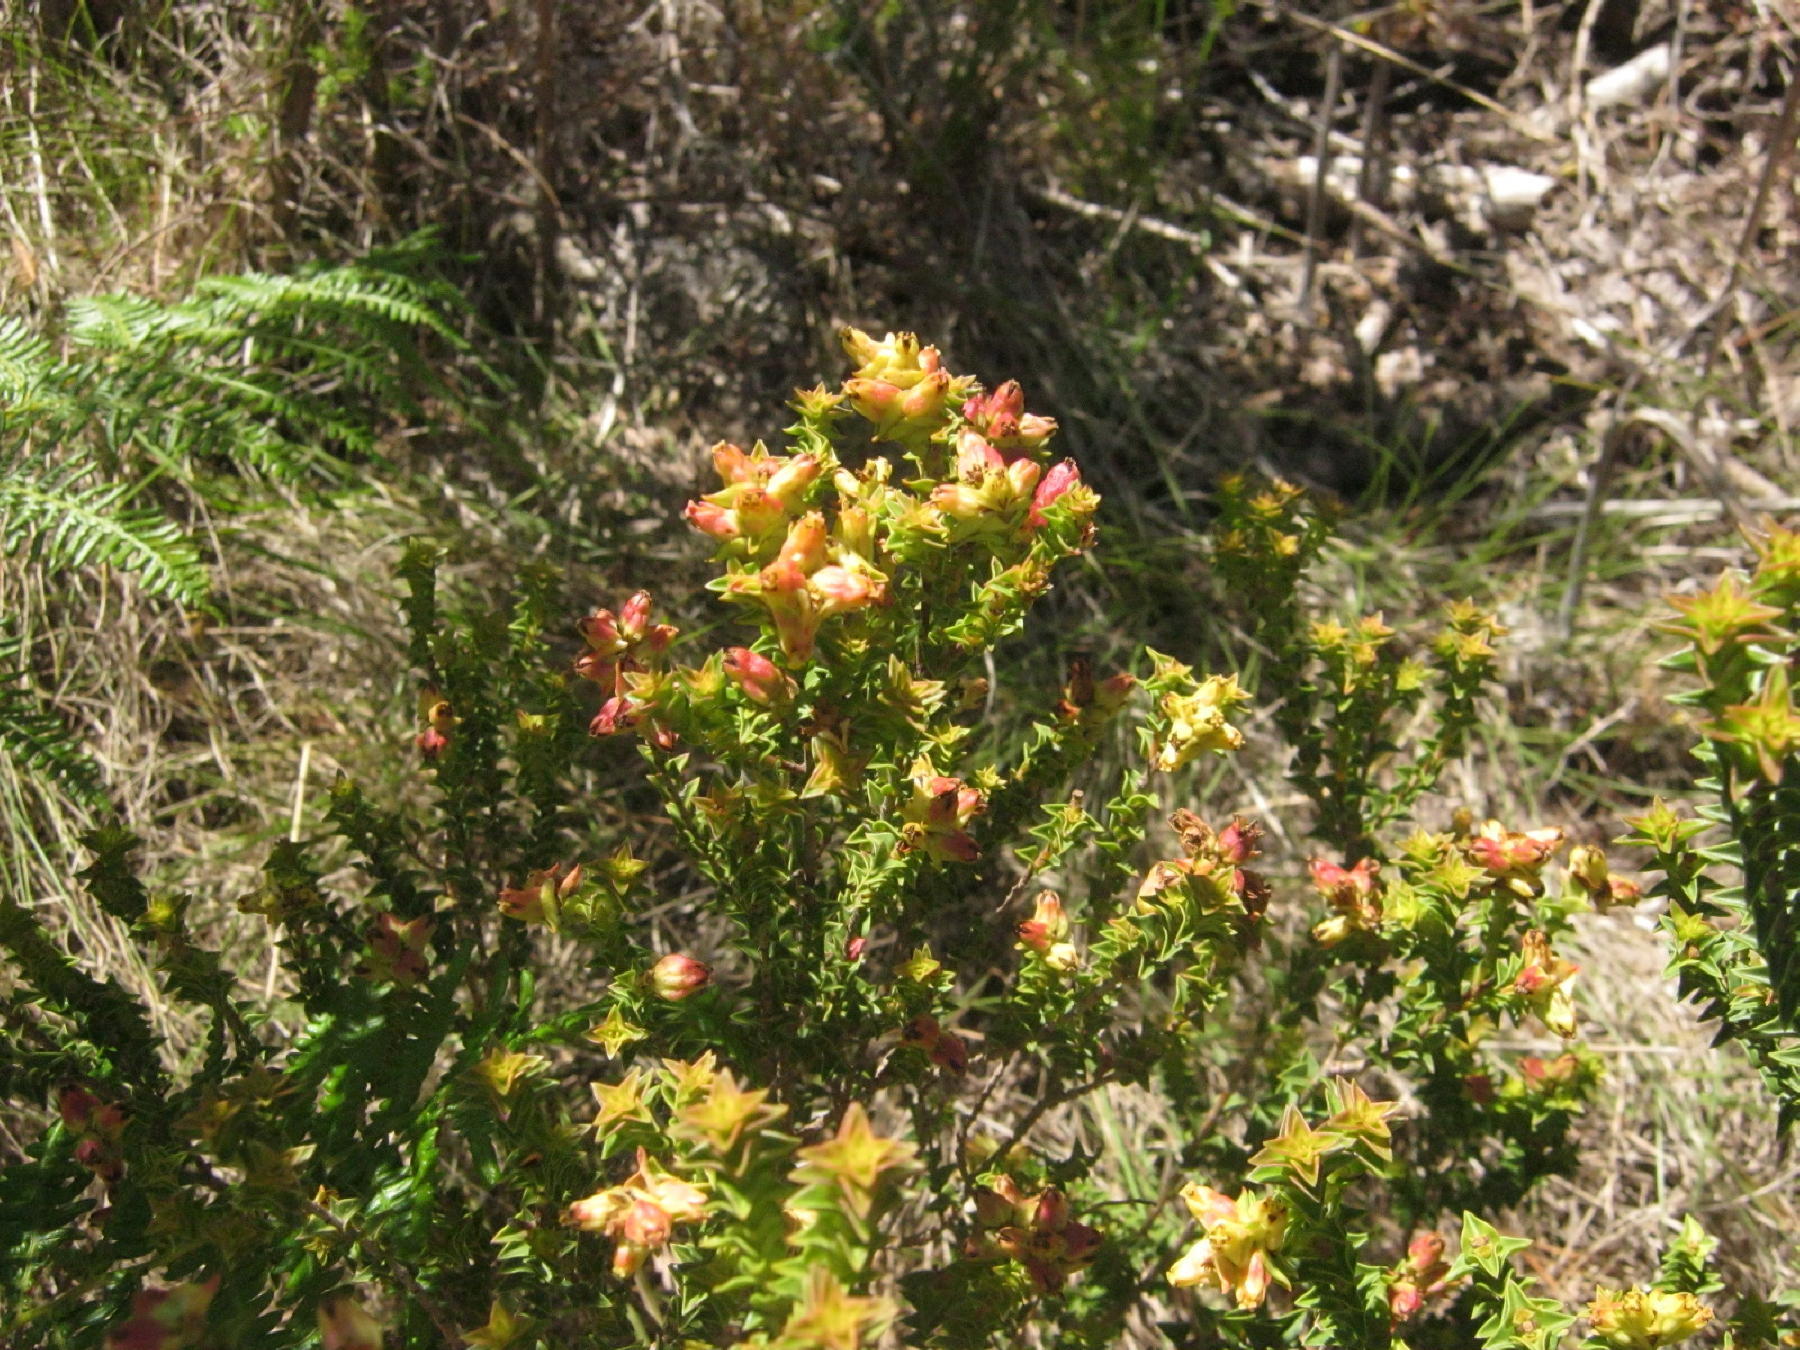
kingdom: Plantae
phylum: Tracheophyta
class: Magnoliopsida
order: Myrtales
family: Penaeaceae
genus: Penaea
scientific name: Penaea mucronata
